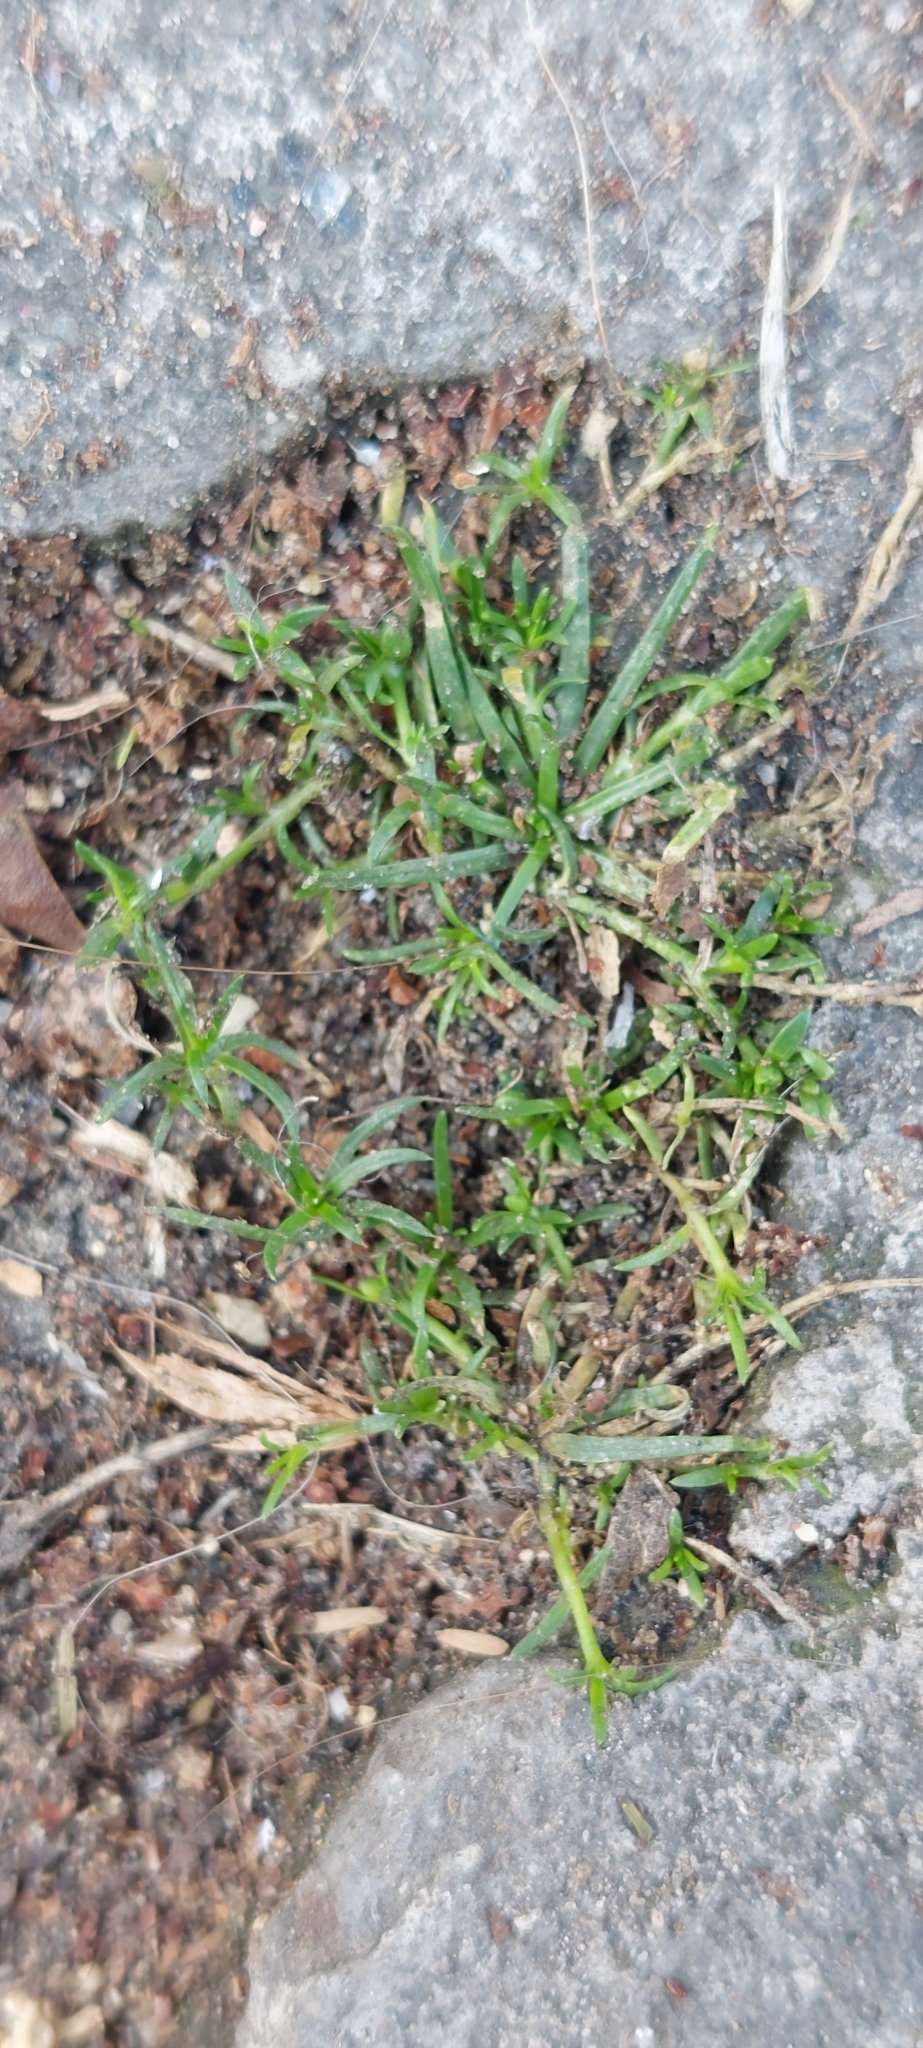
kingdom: Plantae
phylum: Tracheophyta
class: Magnoliopsida
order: Caryophyllales
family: Caryophyllaceae
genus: Sagina
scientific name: Sagina procumbens
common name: Procumbent pearlwort
